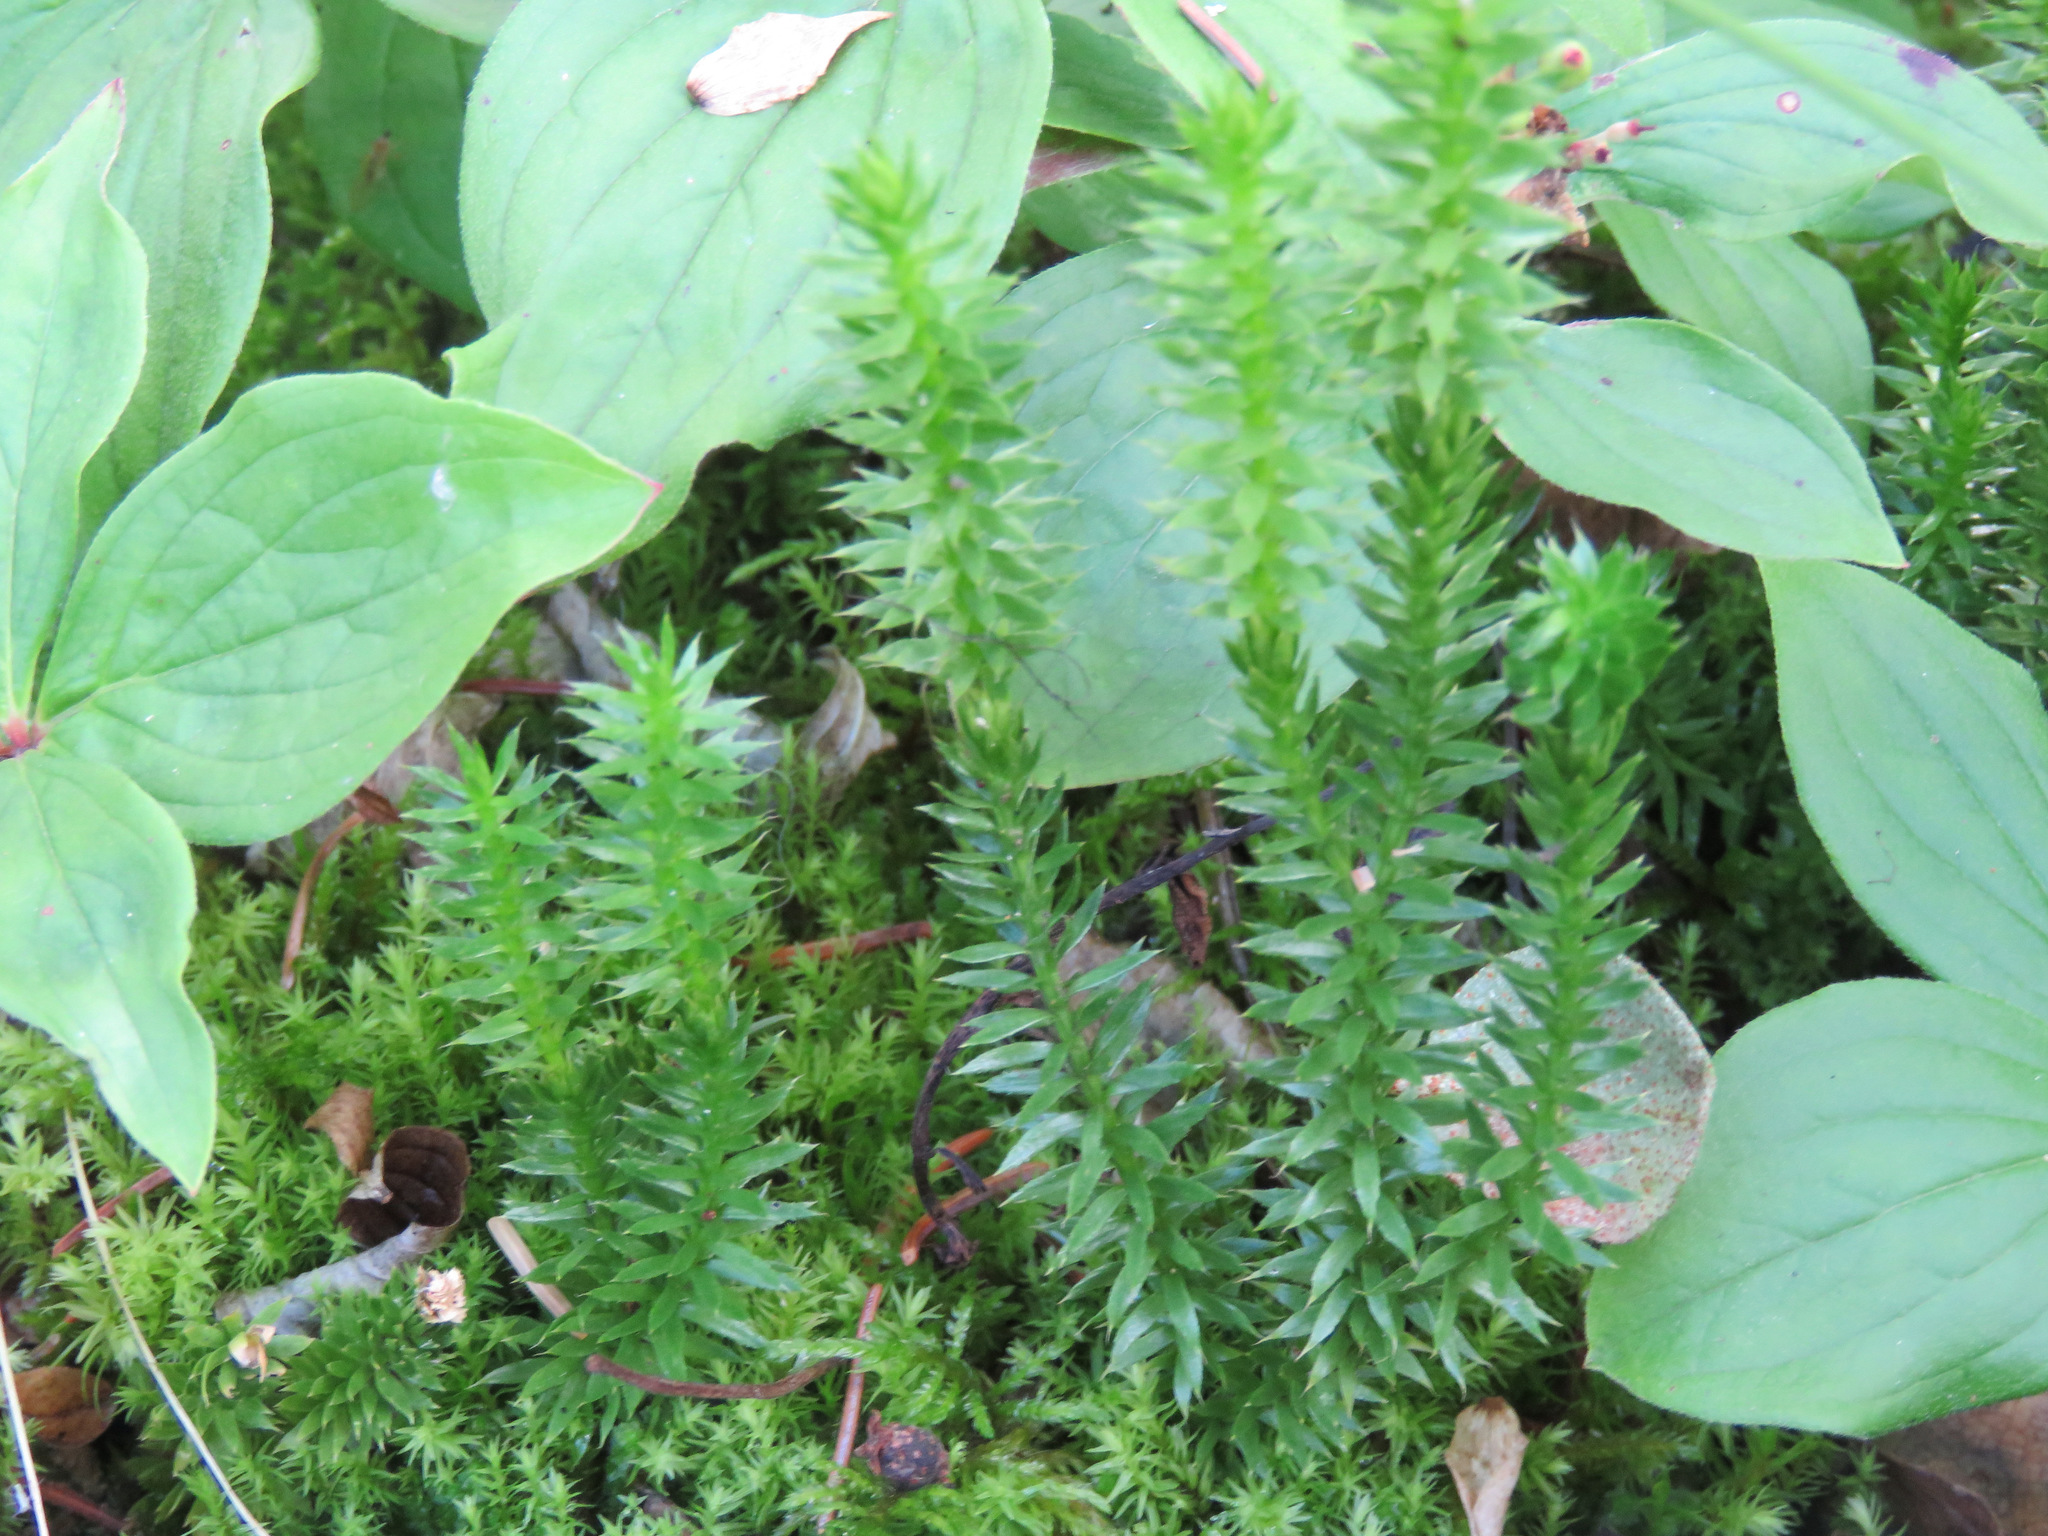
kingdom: Plantae
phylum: Tracheophyta
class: Lycopodiopsida
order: Lycopodiales
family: Lycopodiaceae
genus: Spinulum
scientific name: Spinulum annotinum
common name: Interrupted club-moss
